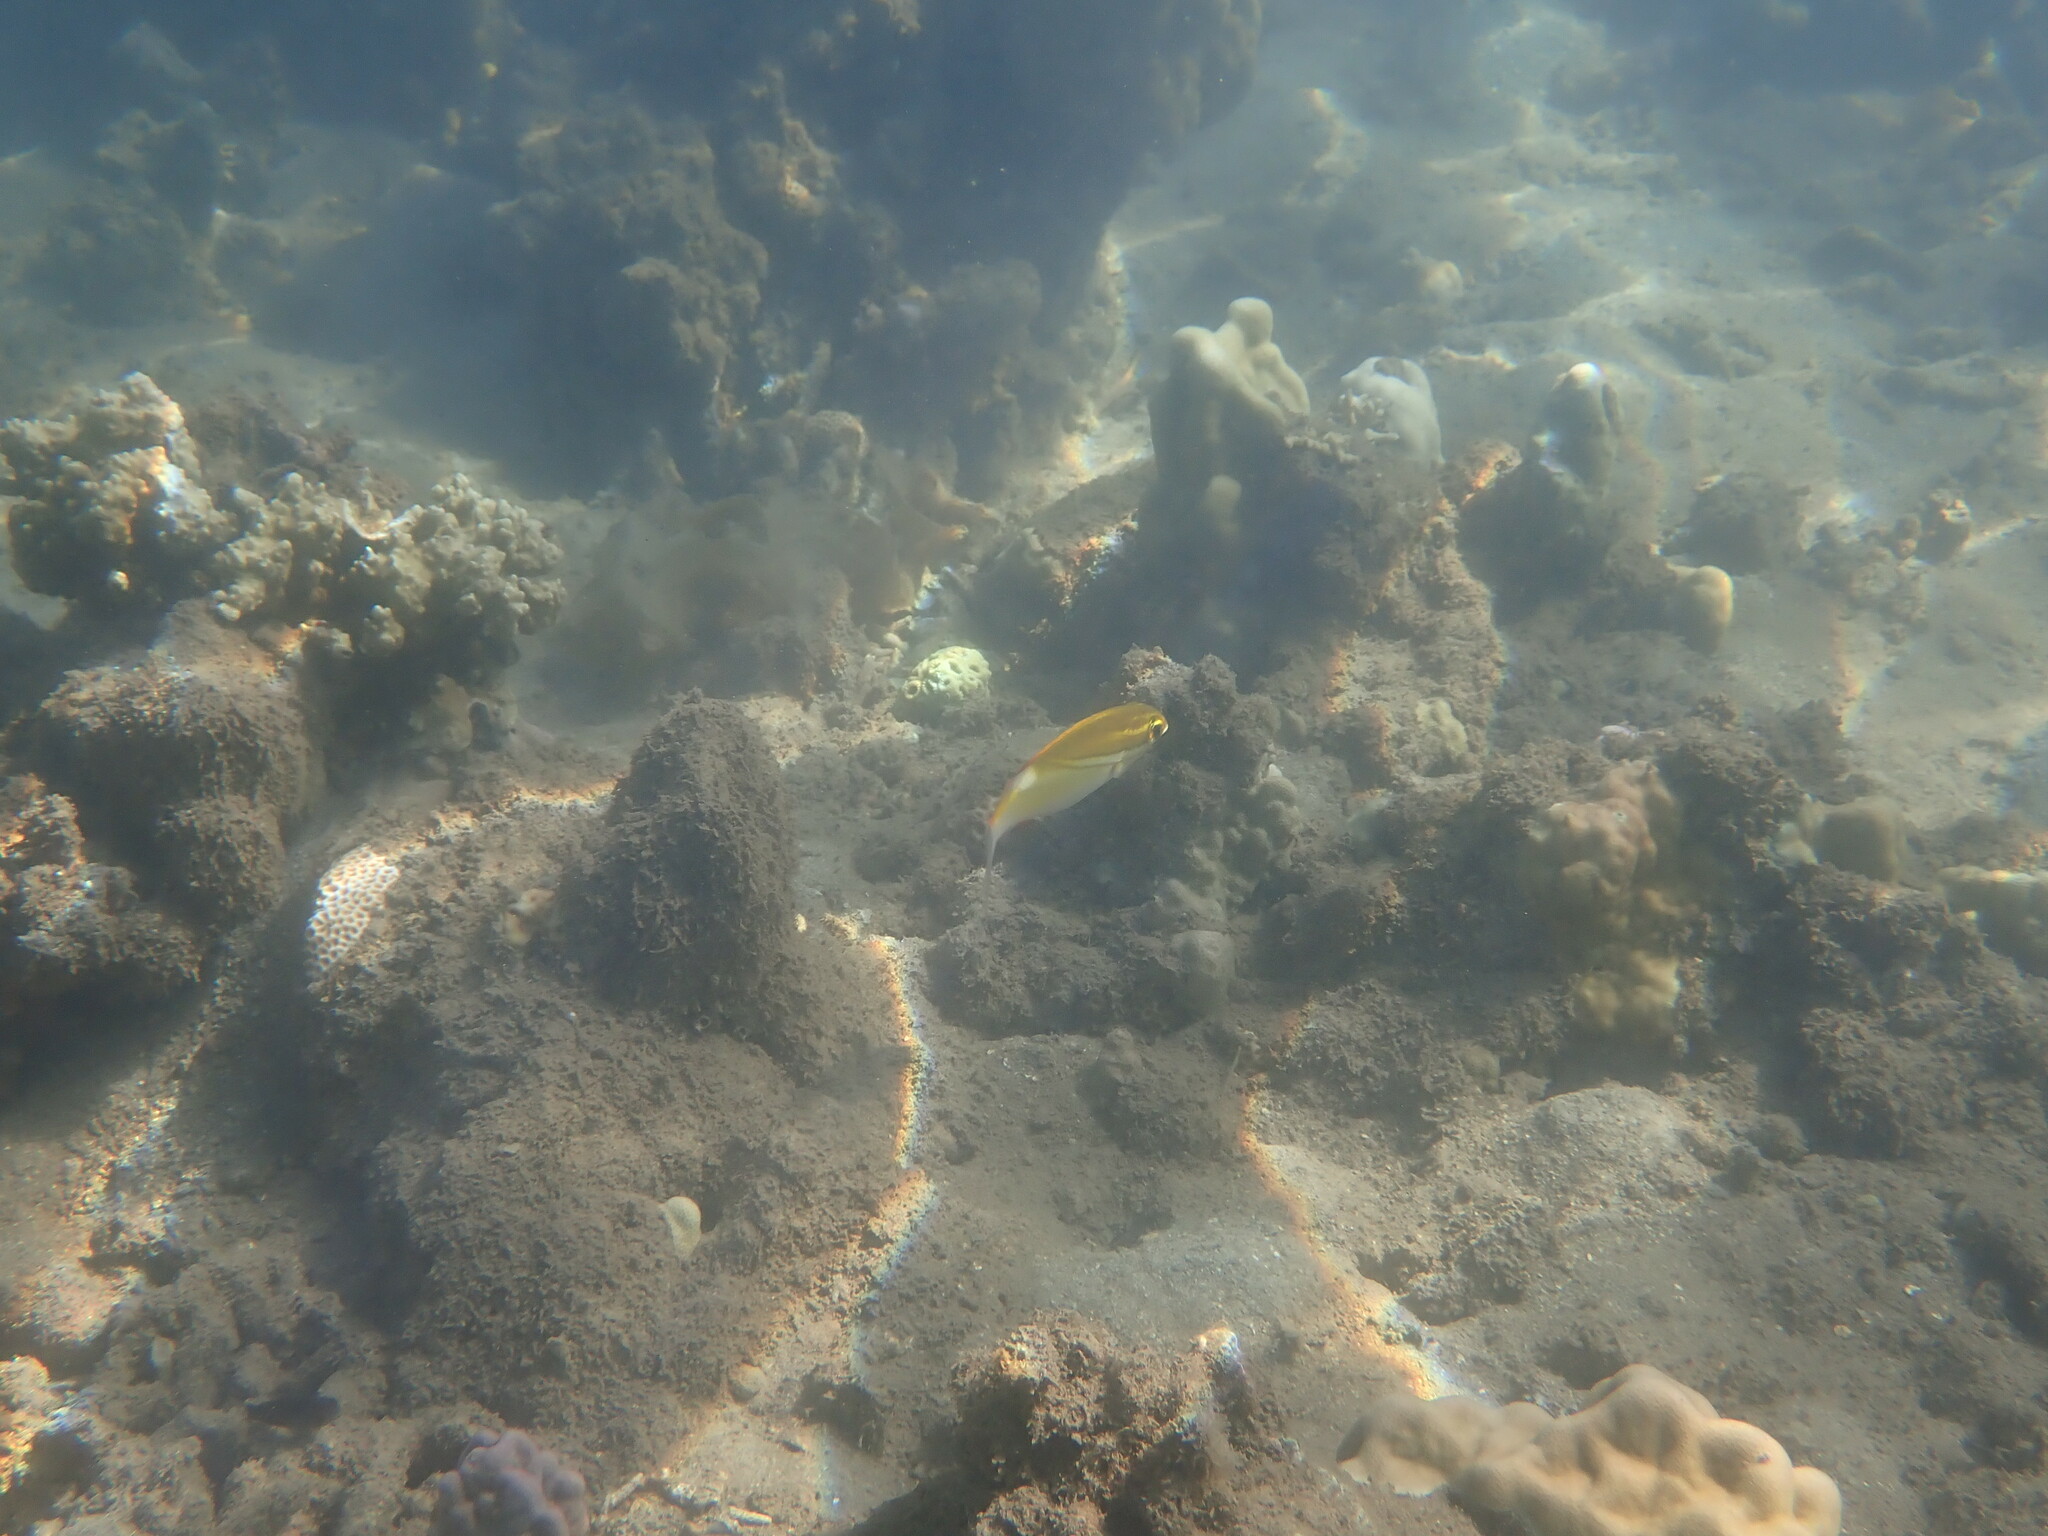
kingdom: Animalia
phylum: Chordata
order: Perciformes
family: Nemipteridae
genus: Scolopsis
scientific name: Scolopsis bilineata
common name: Two-lined monocle bream
